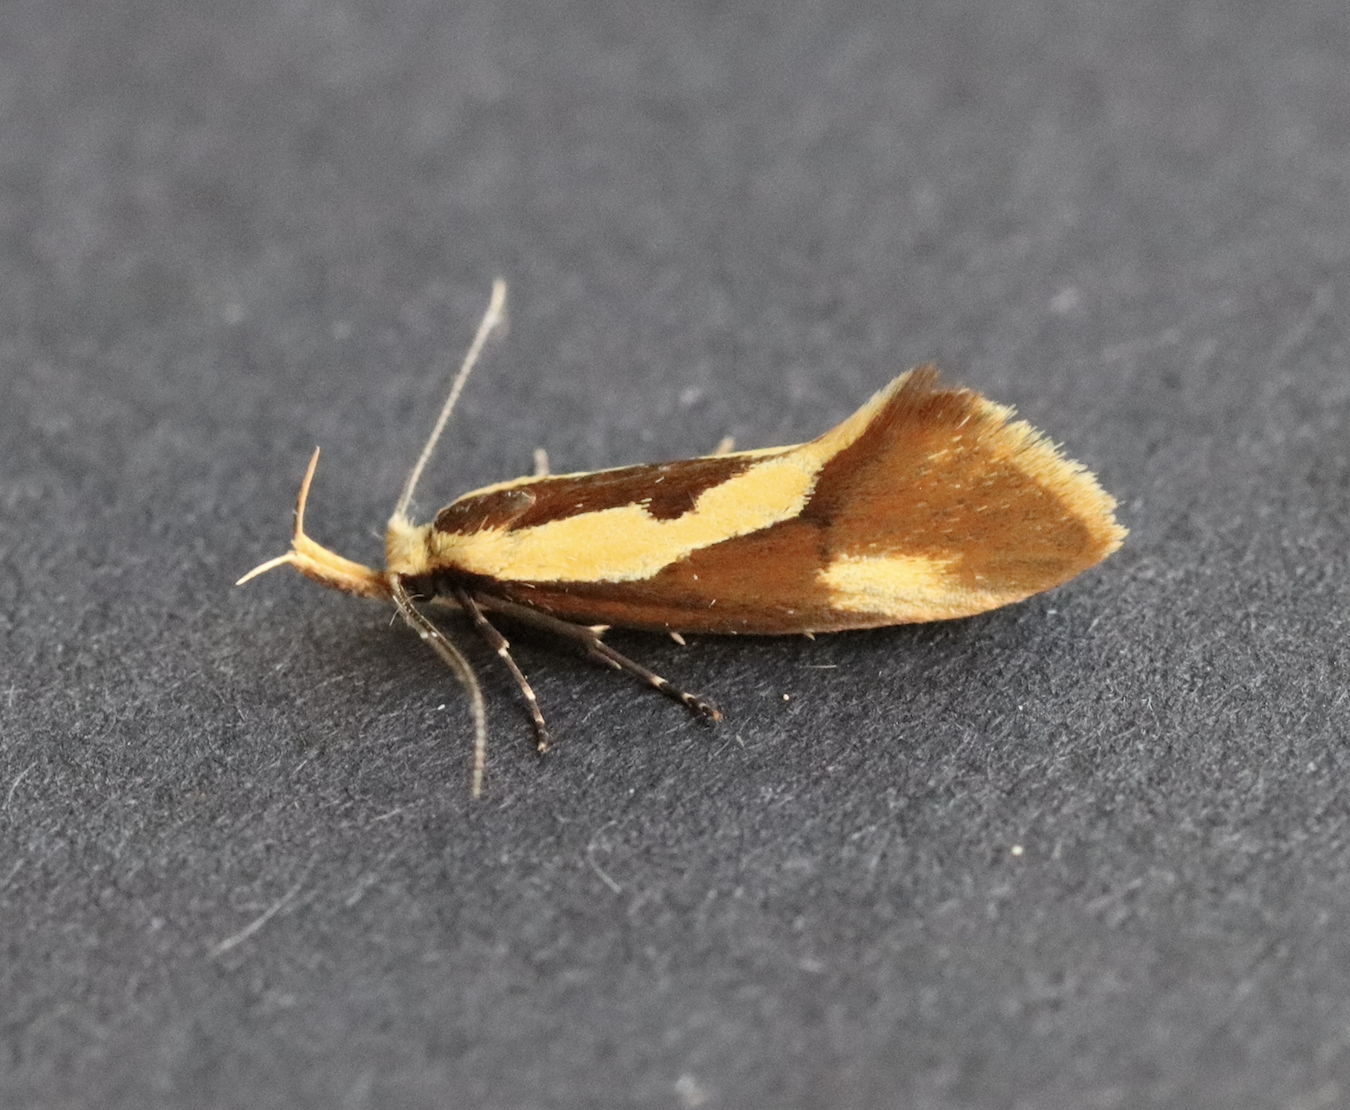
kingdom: Animalia
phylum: Arthropoda
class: Insecta
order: Lepidoptera
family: Oecophoridae
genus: Harpella
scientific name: Harpella forficella
